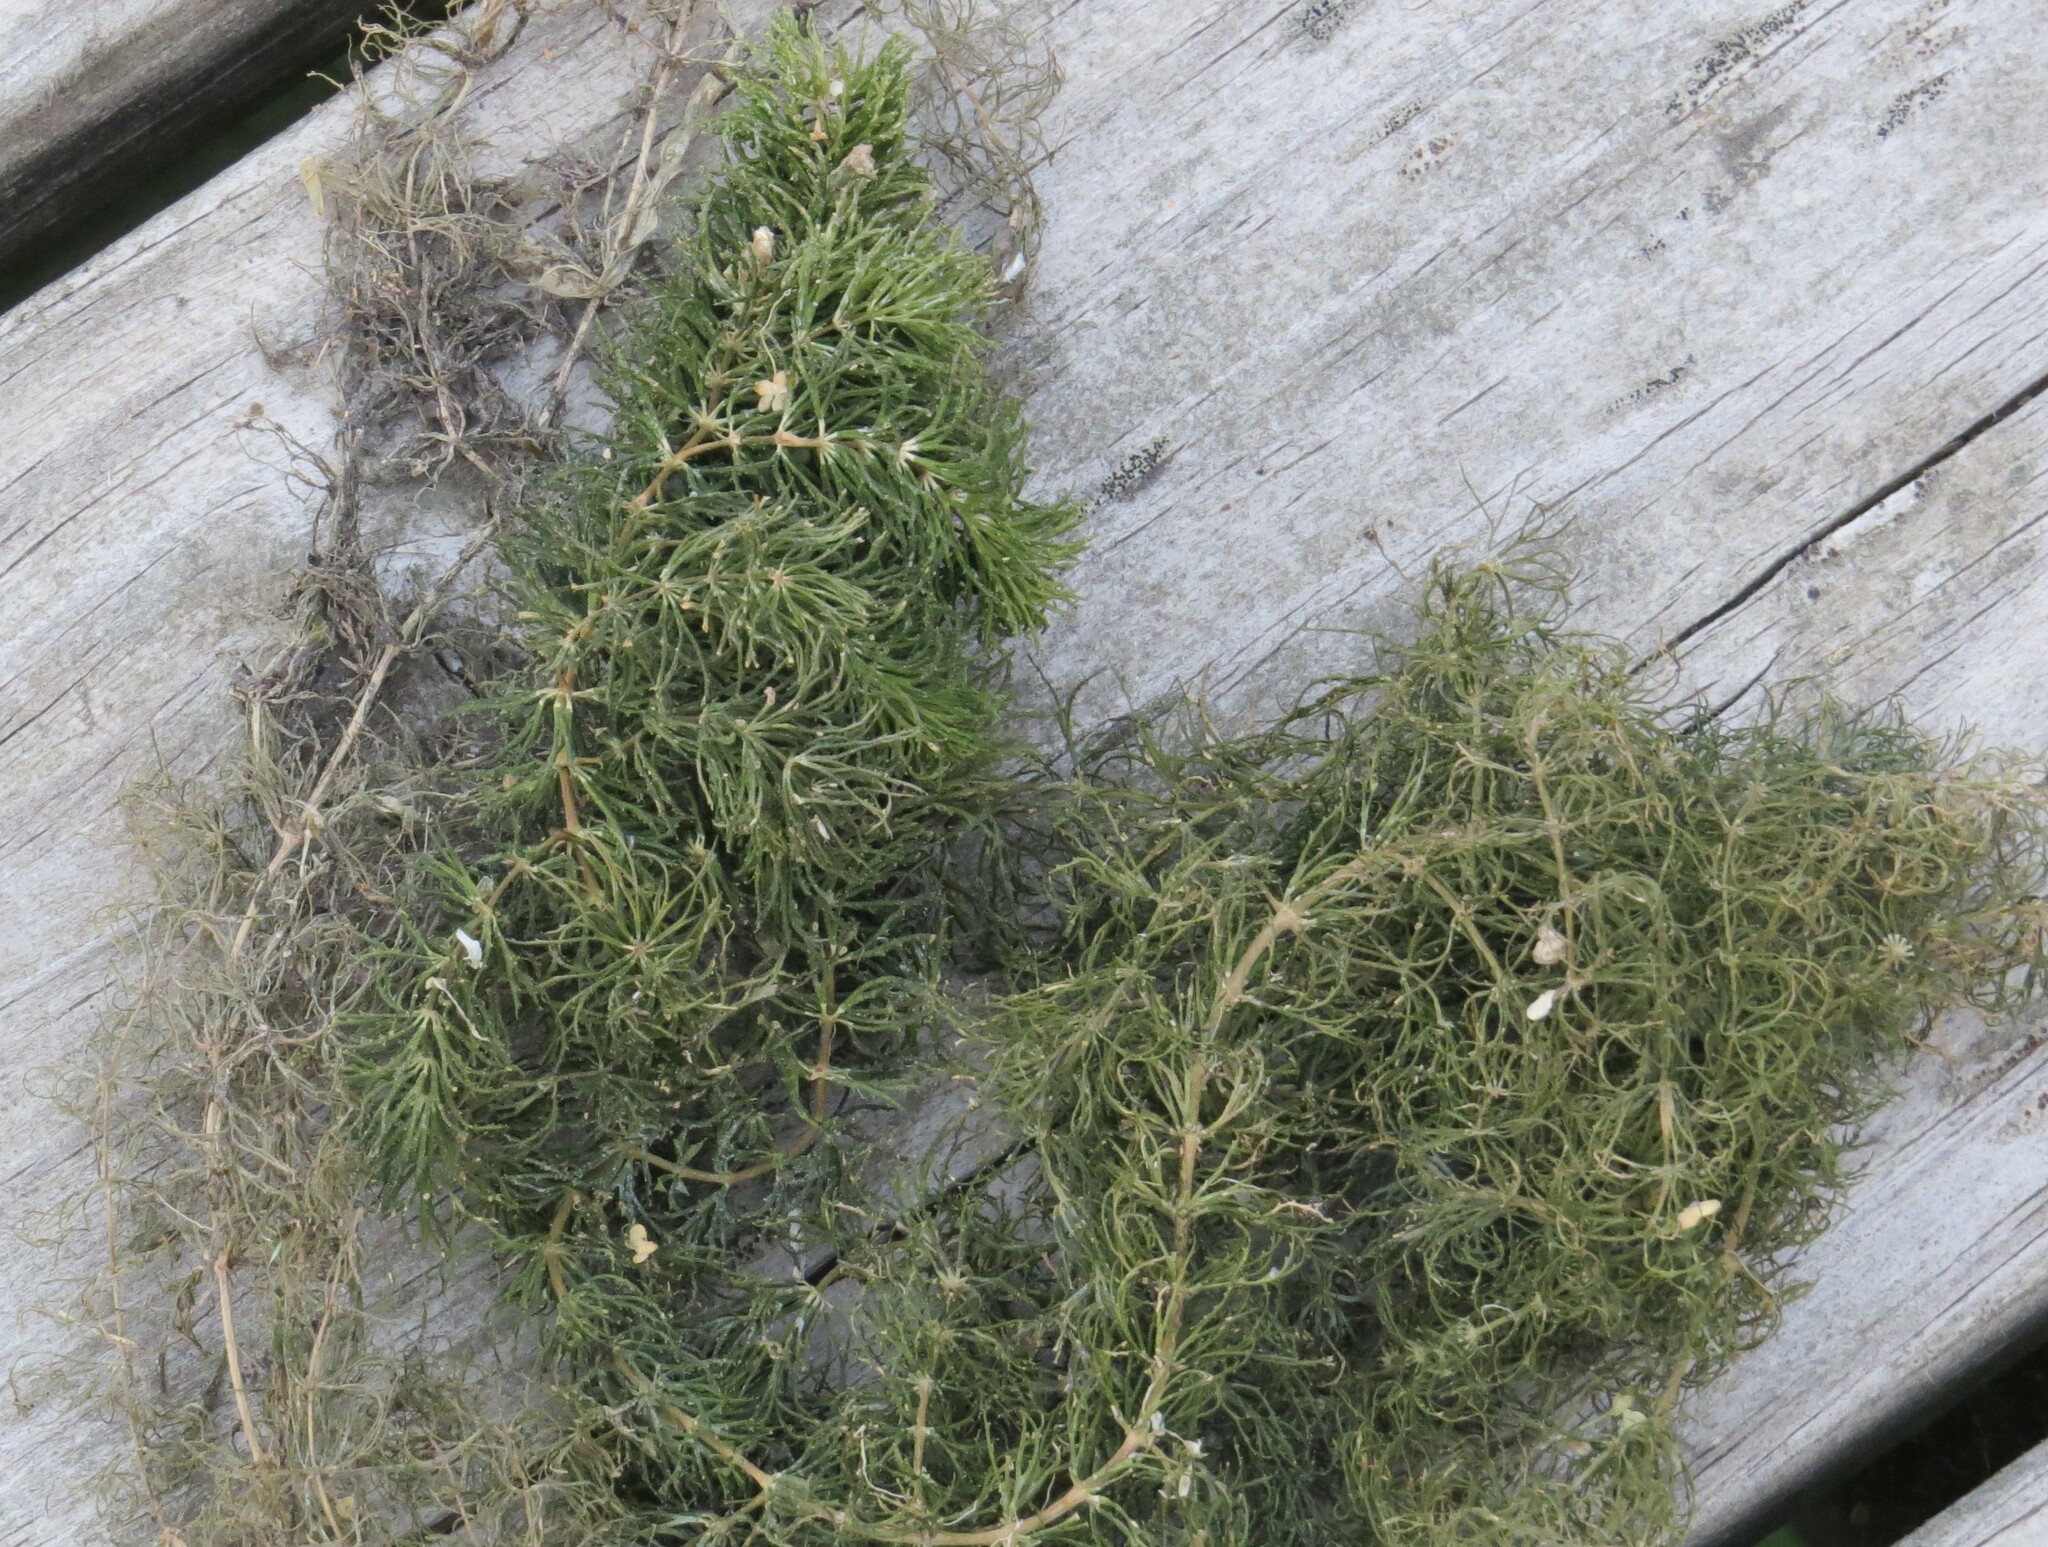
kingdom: Plantae
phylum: Tracheophyta
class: Magnoliopsida
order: Ceratophyllales
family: Ceratophyllaceae
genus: Ceratophyllum
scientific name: Ceratophyllum demersum
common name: Rigid hornwort
